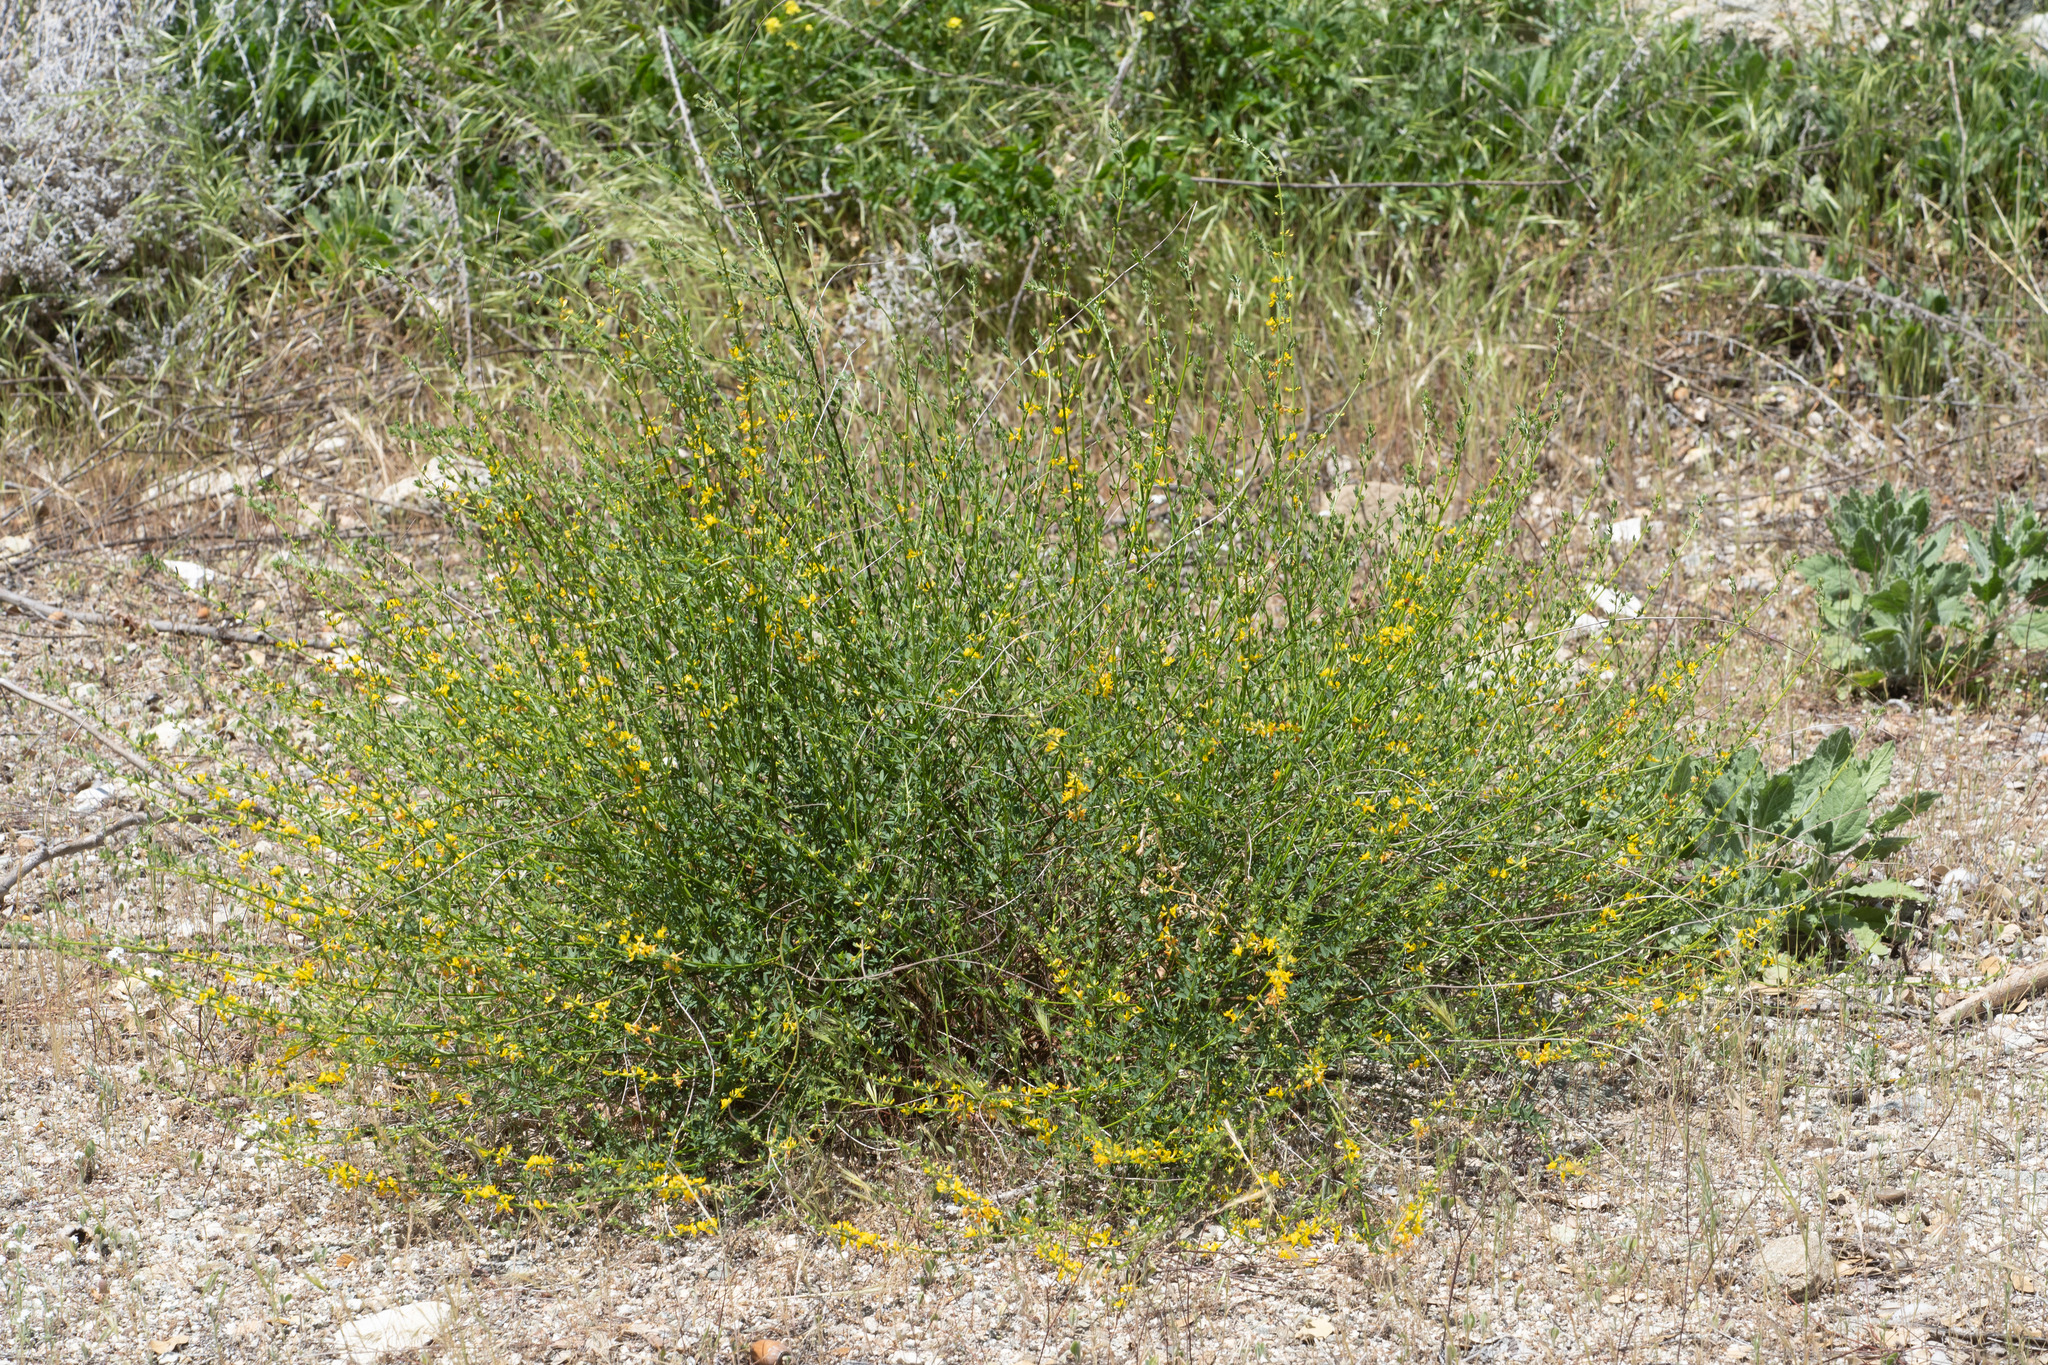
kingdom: Plantae
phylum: Tracheophyta
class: Magnoliopsida
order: Fabales
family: Fabaceae
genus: Acmispon
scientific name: Acmispon glaber
